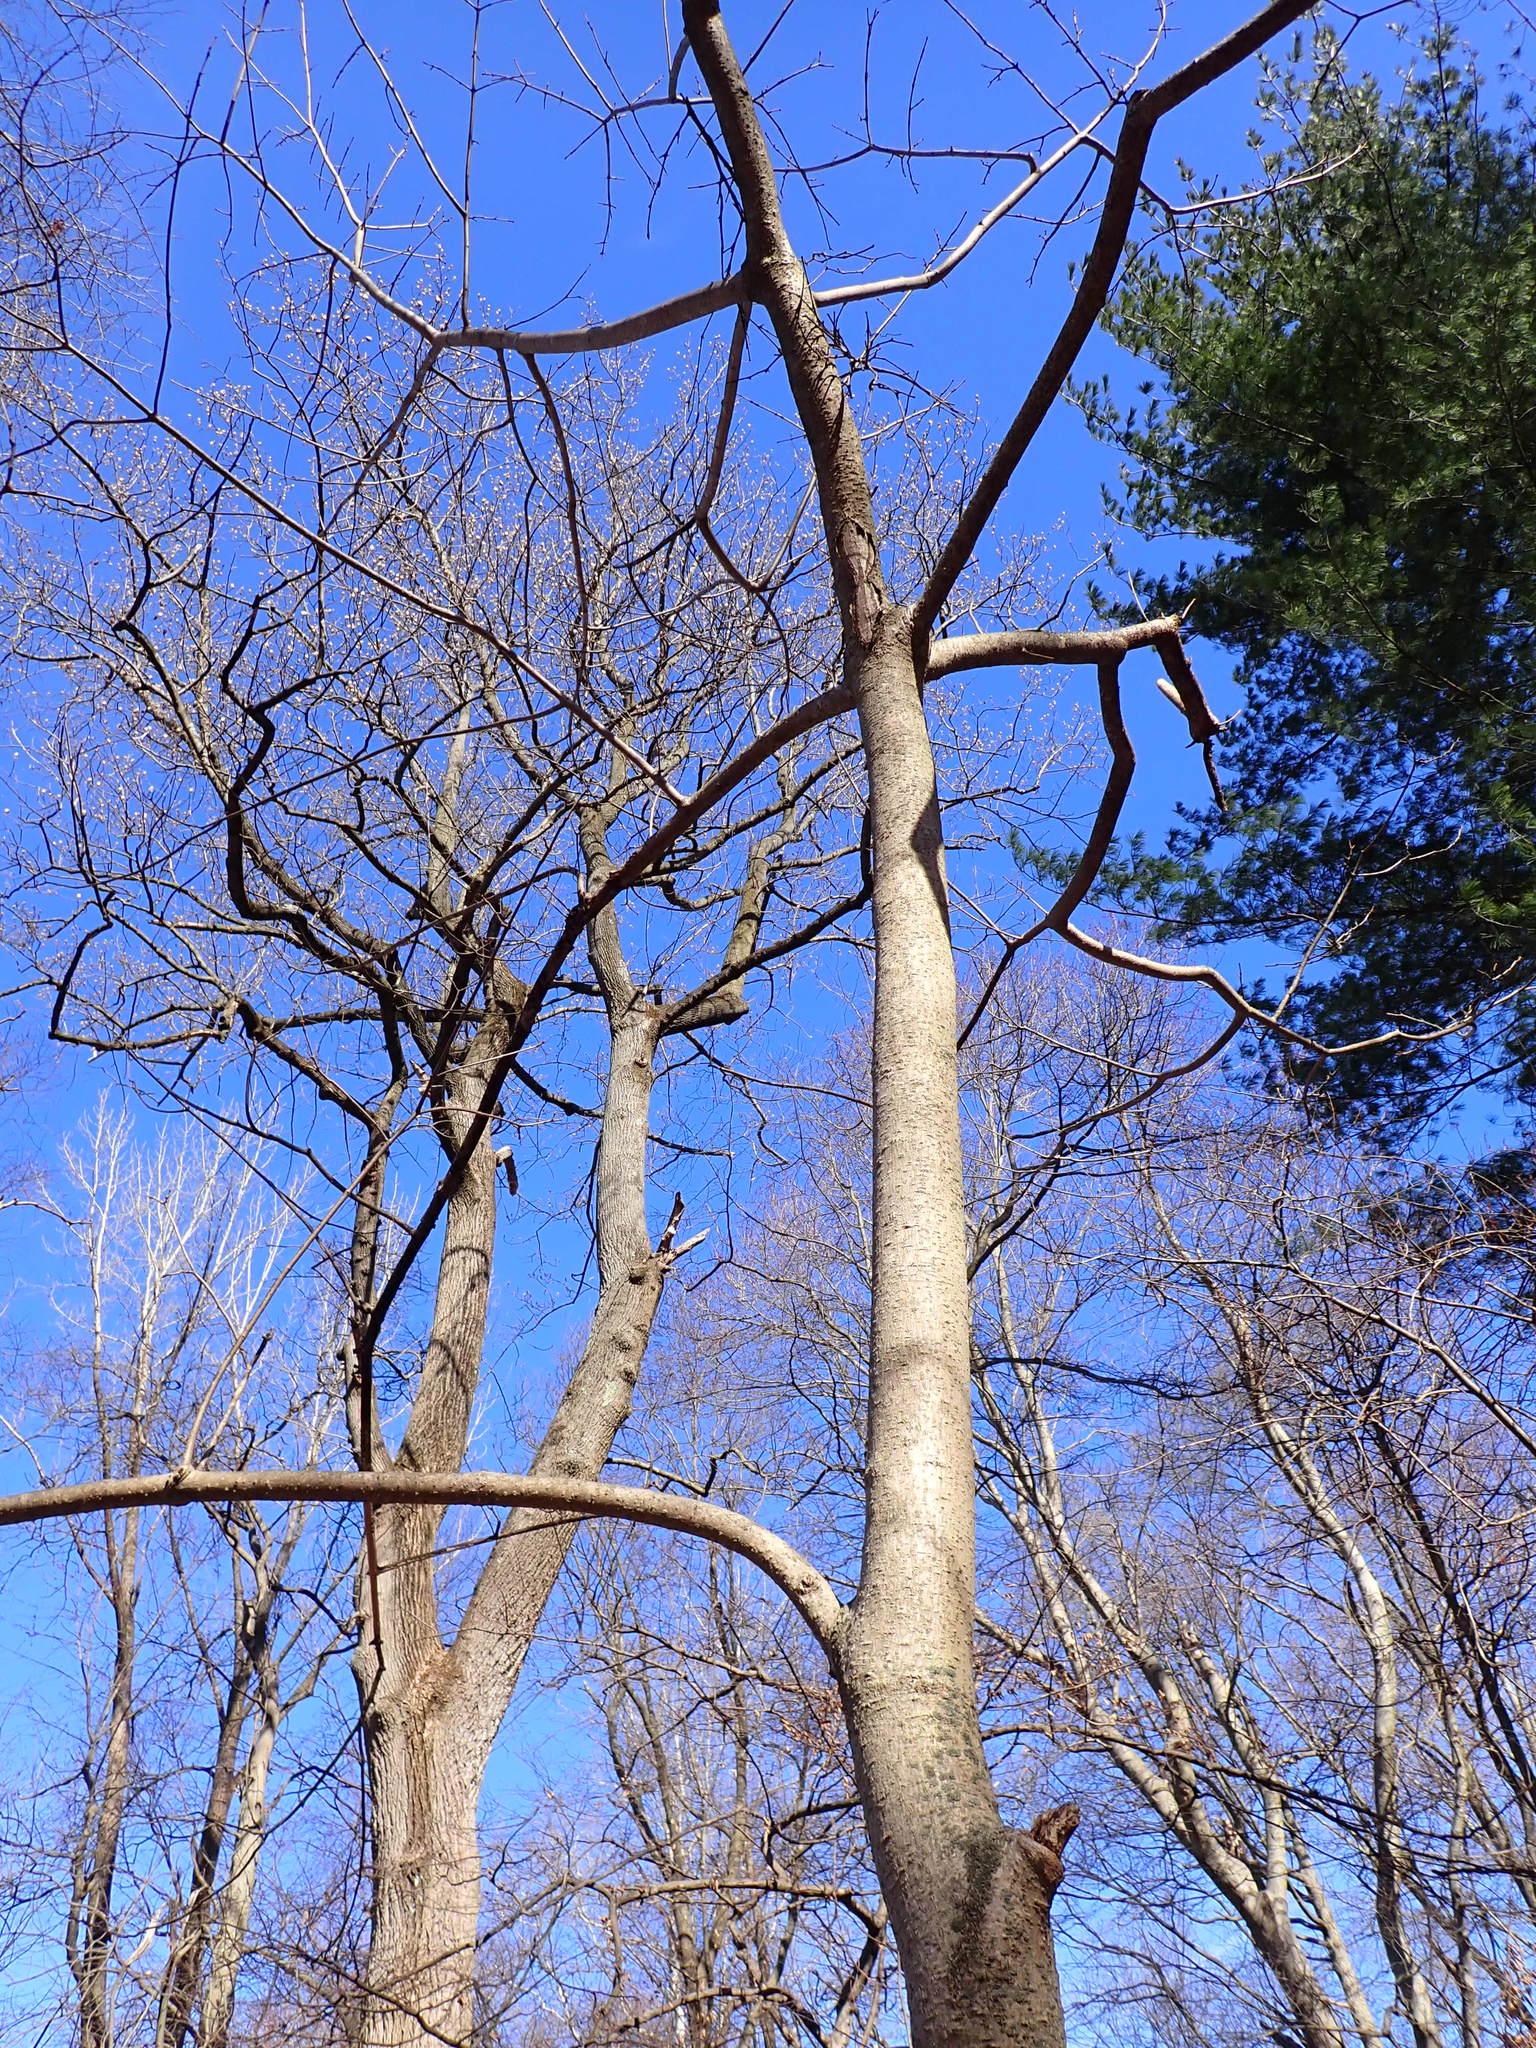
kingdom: Plantae
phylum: Tracheophyta
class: Magnoliopsida
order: Sapindales
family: Rutaceae
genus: Phellodendron
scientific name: Phellodendron amurense
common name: Amur corktree
